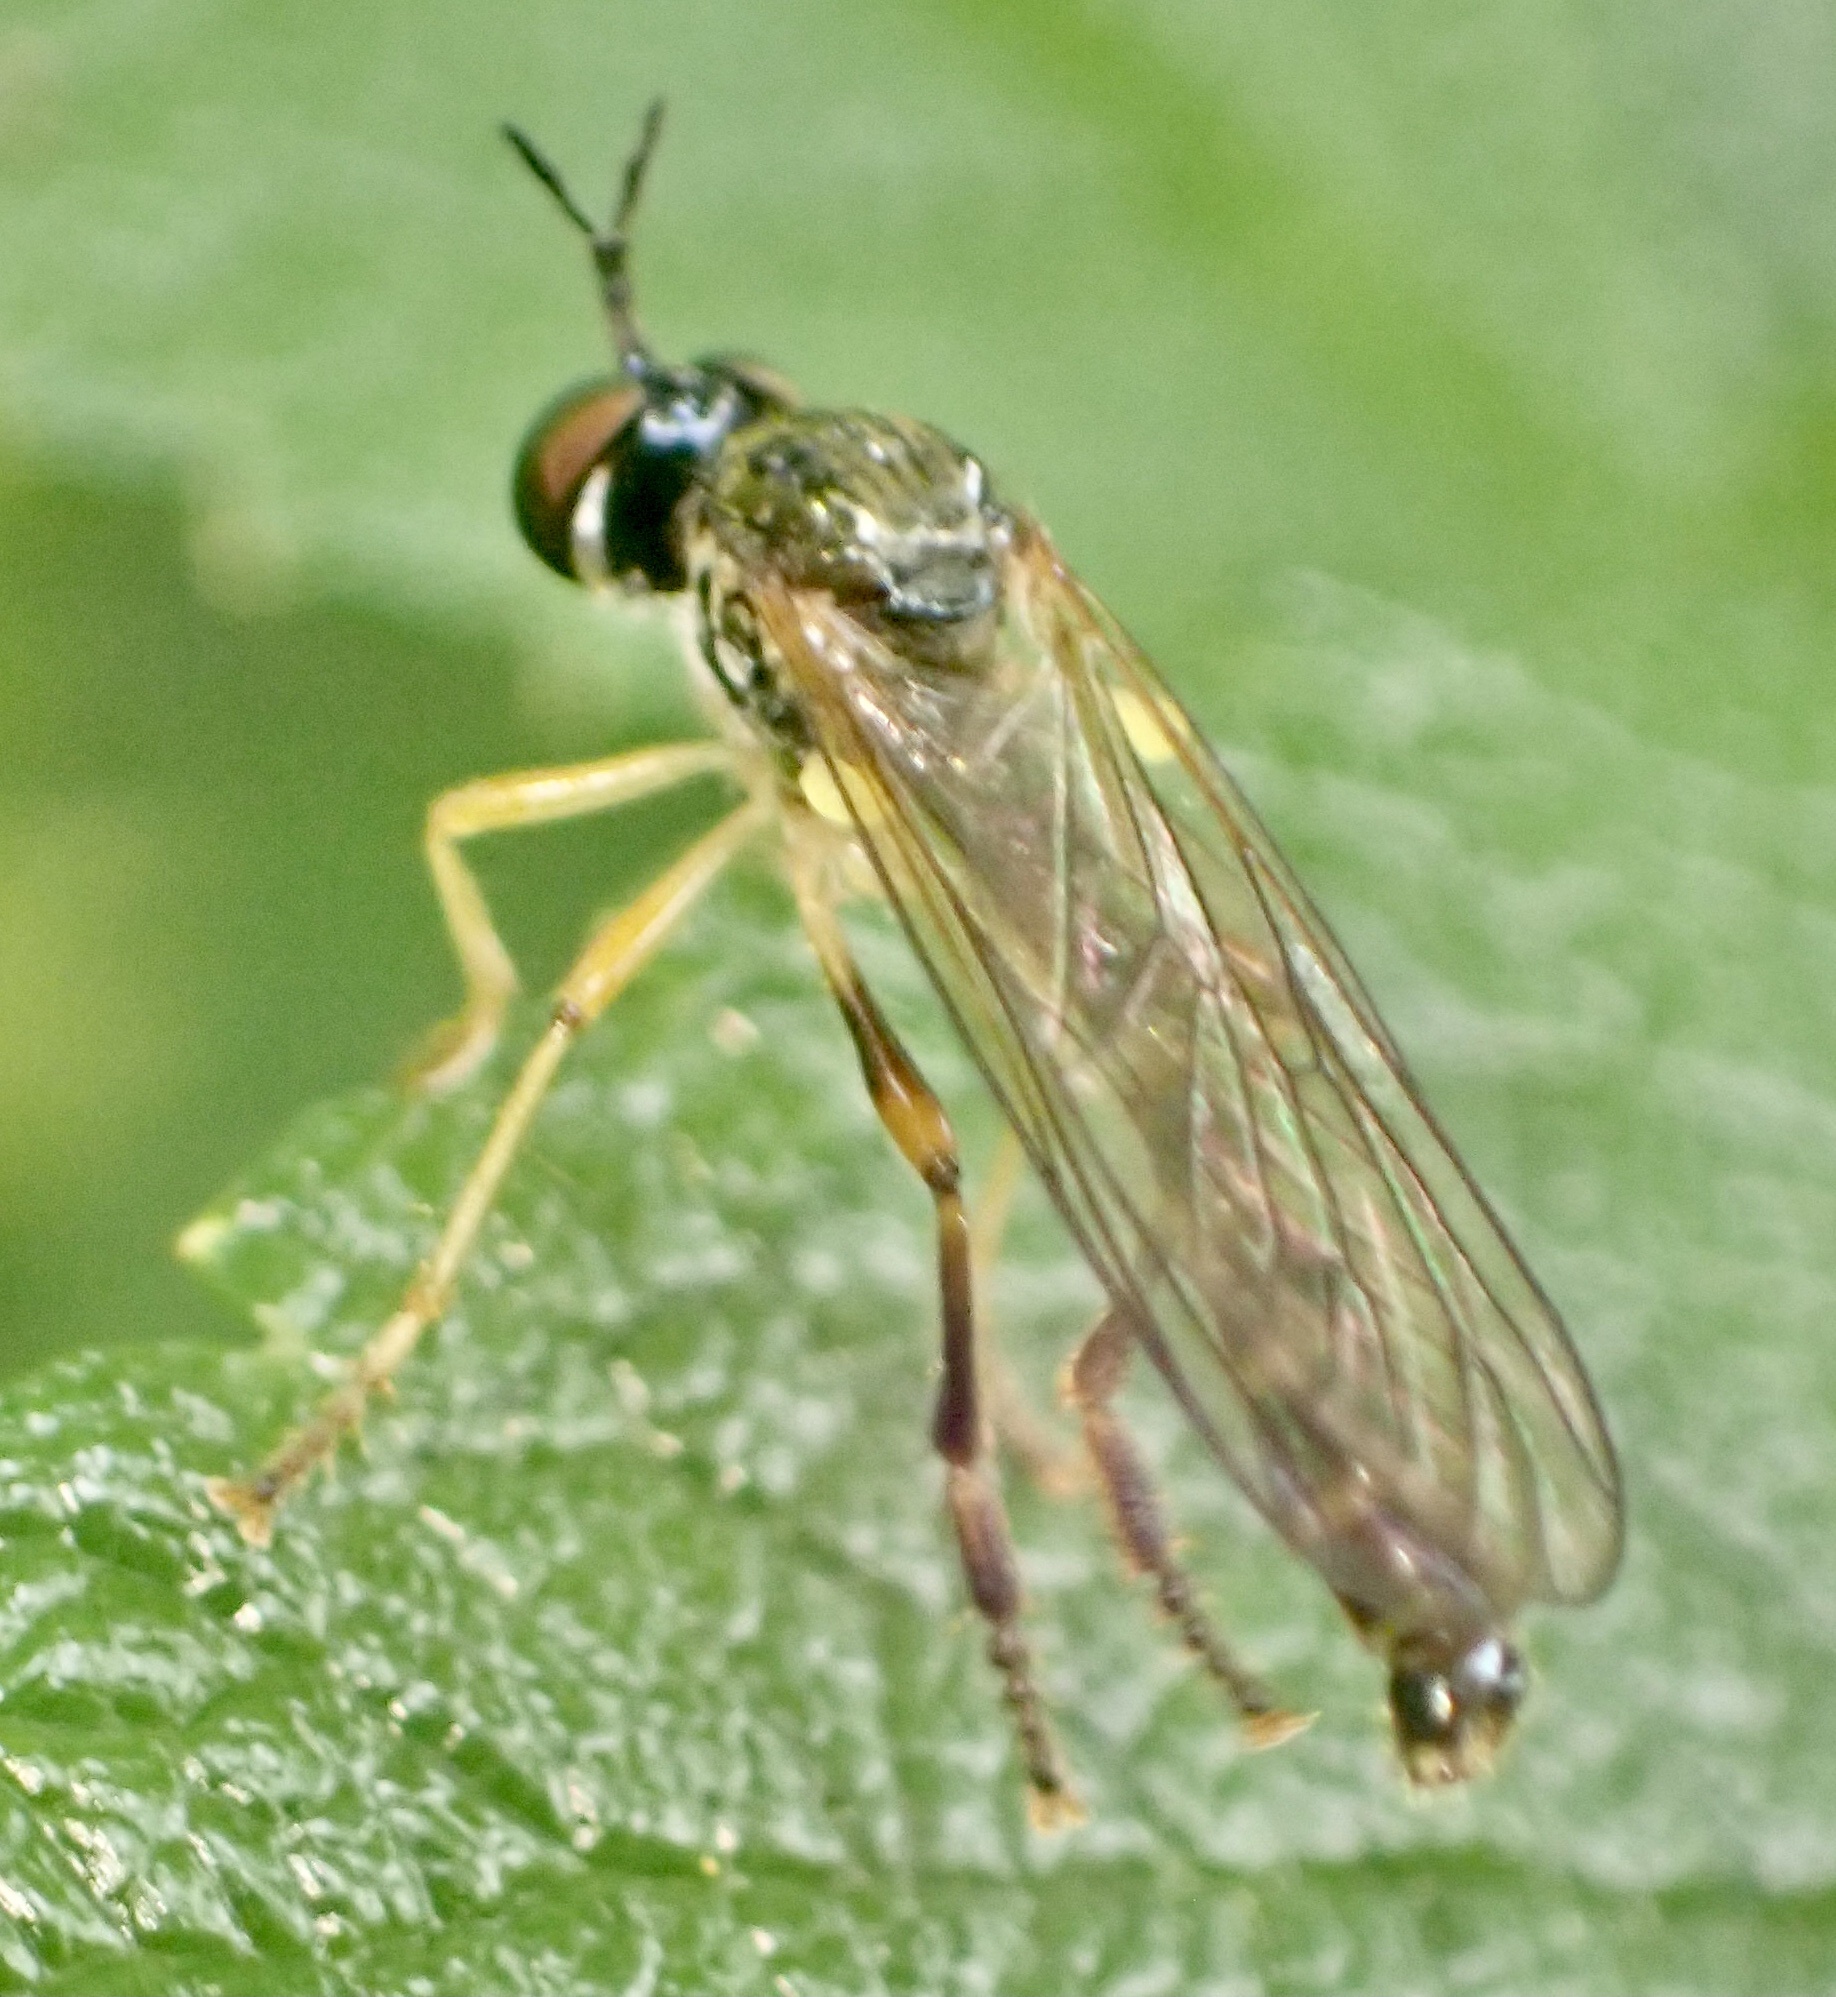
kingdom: Animalia
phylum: Arthropoda
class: Insecta
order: Diptera
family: Asilidae
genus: Dioctria
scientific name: Dioctria linearis
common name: Small yellow-legged robberfly
